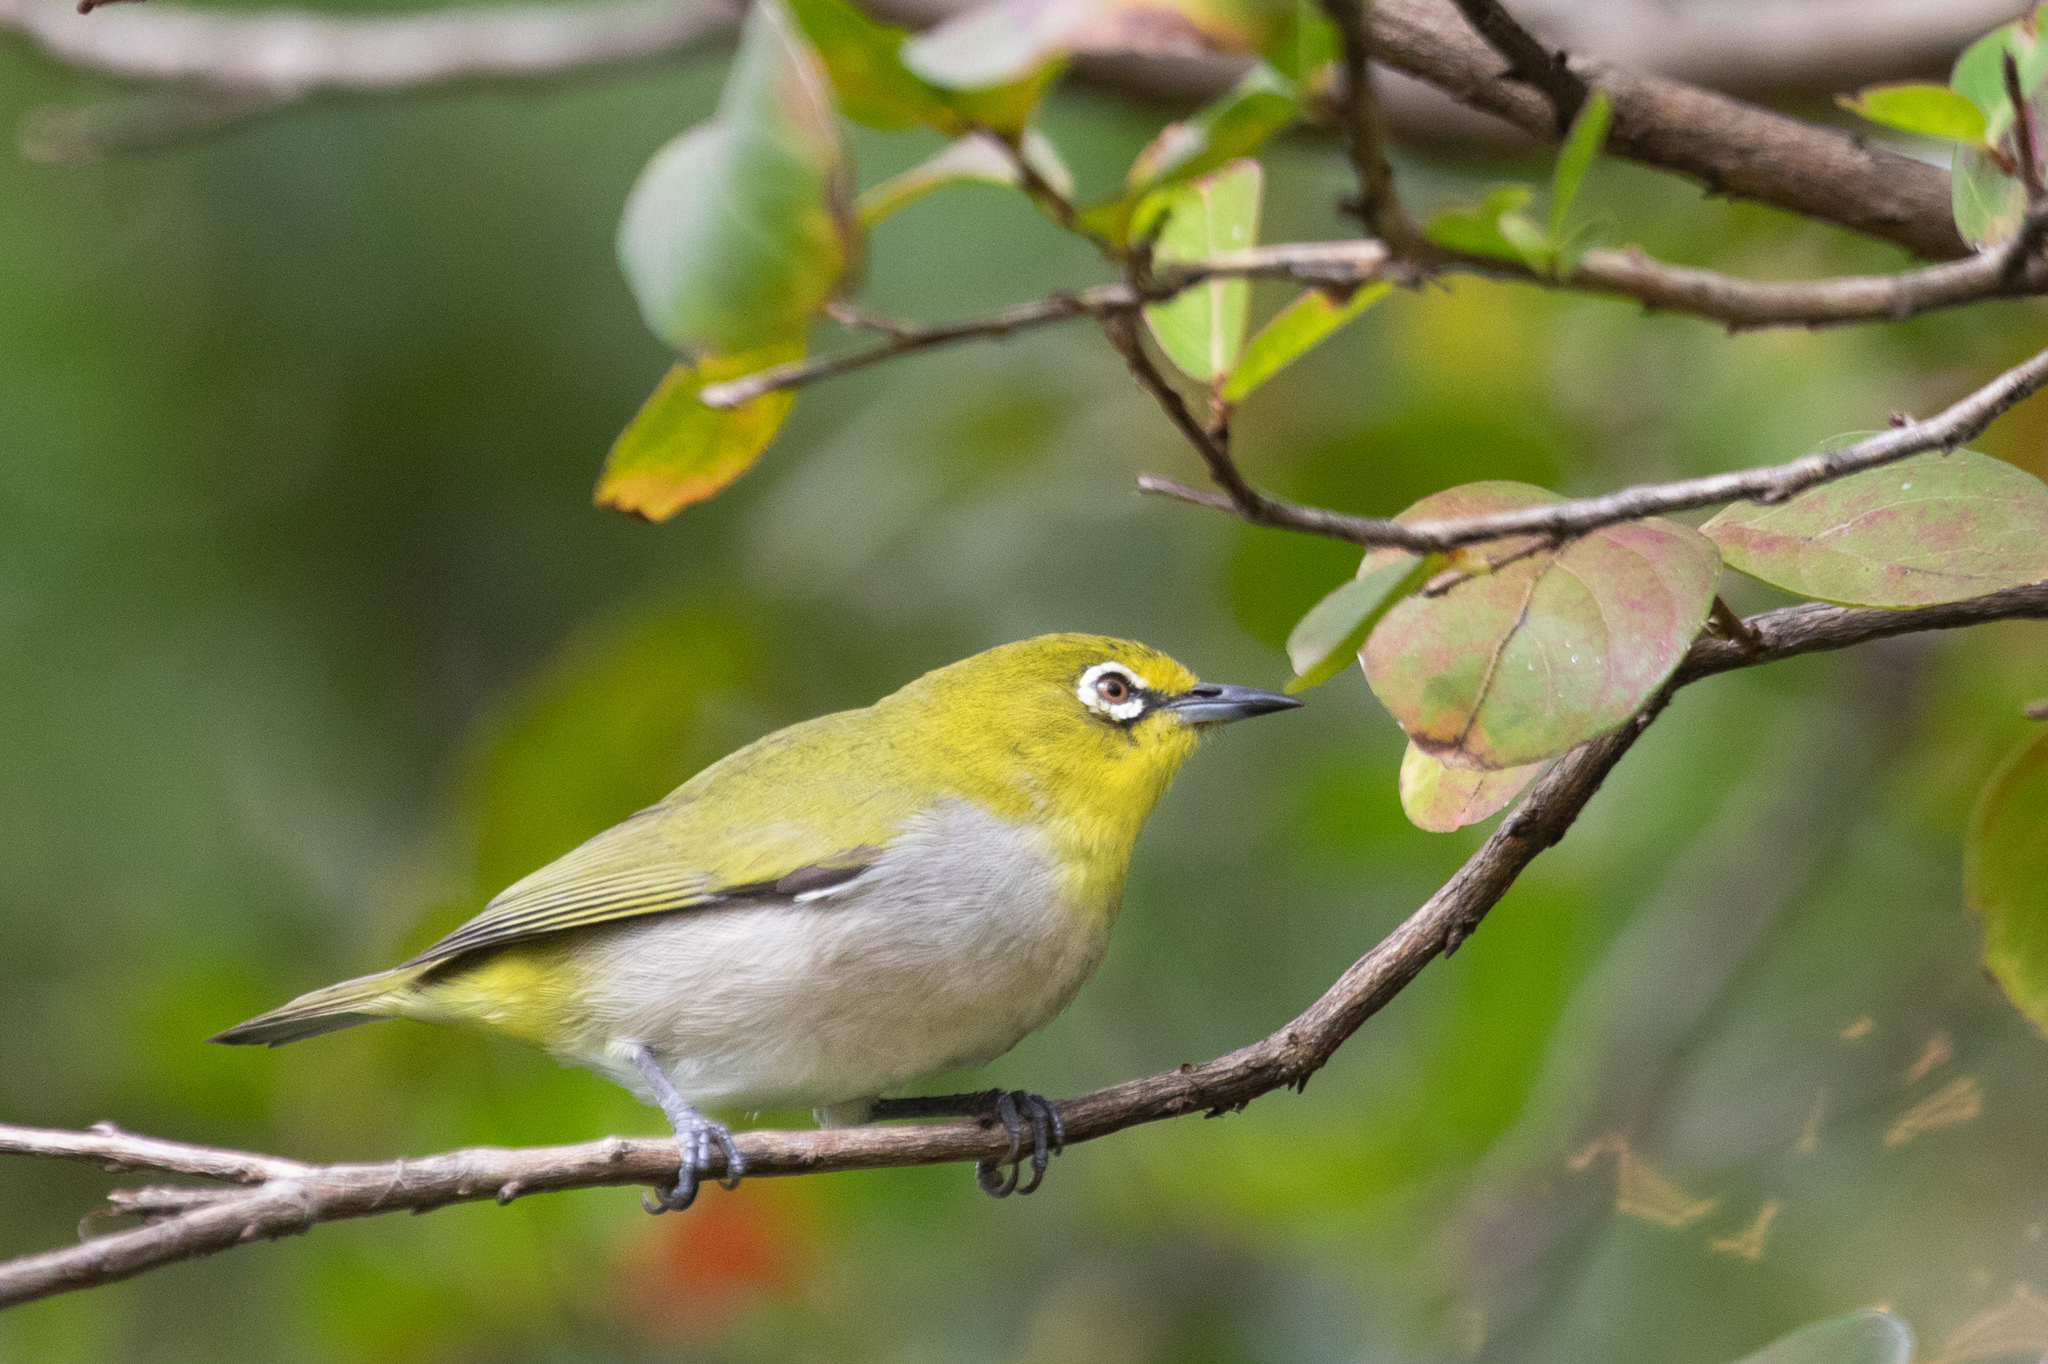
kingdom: Animalia
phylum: Chordata
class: Aves
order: Passeriformes
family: Zosteropidae
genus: Zosterops
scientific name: Zosterops simplex
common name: Swinhoe's white-eye
